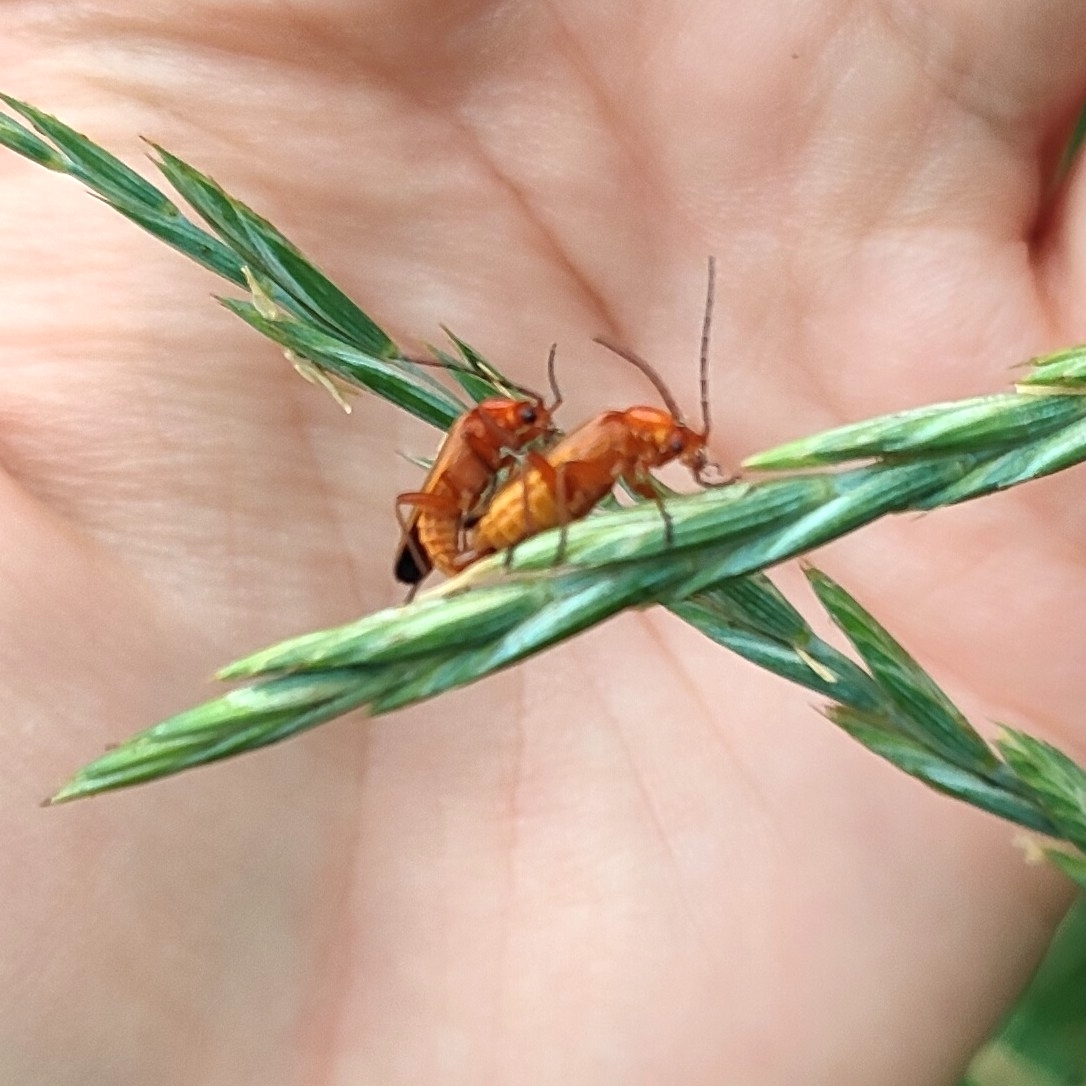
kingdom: Animalia
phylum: Arthropoda
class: Insecta
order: Coleoptera
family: Cantharidae
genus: Rhagonycha
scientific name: Rhagonycha fulva
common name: Common red soldier beetle
